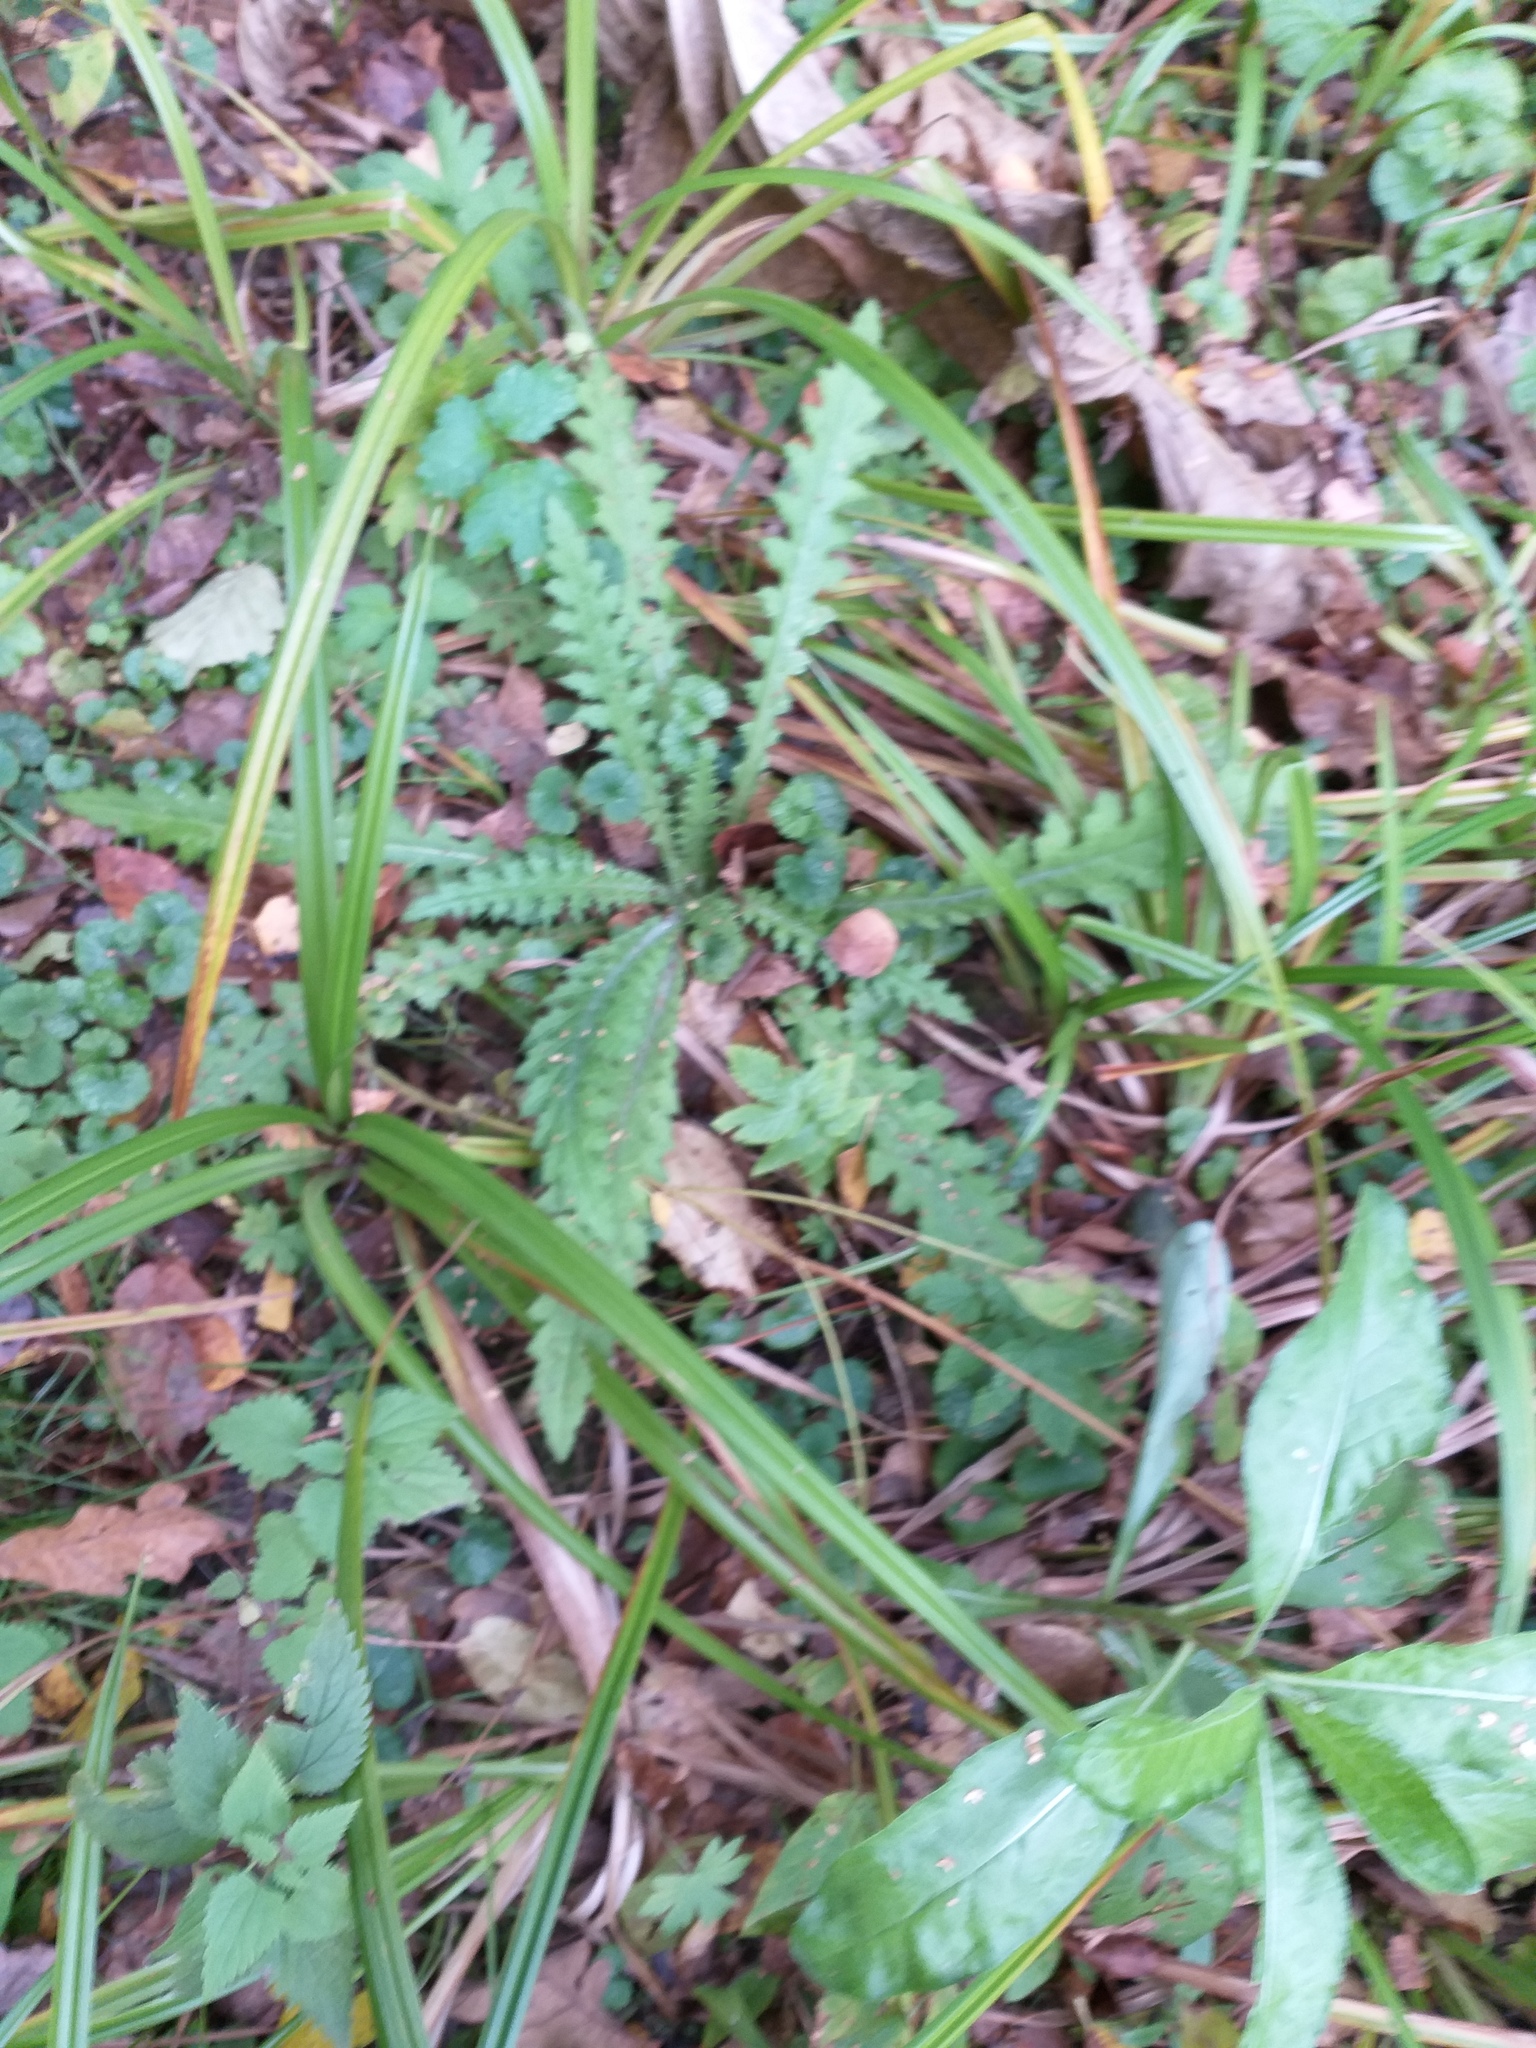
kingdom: Plantae
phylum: Tracheophyta
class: Magnoliopsida
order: Asterales
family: Asteraceae
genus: Cirsium
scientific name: Cirsium palustre
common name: Marsh thistle
